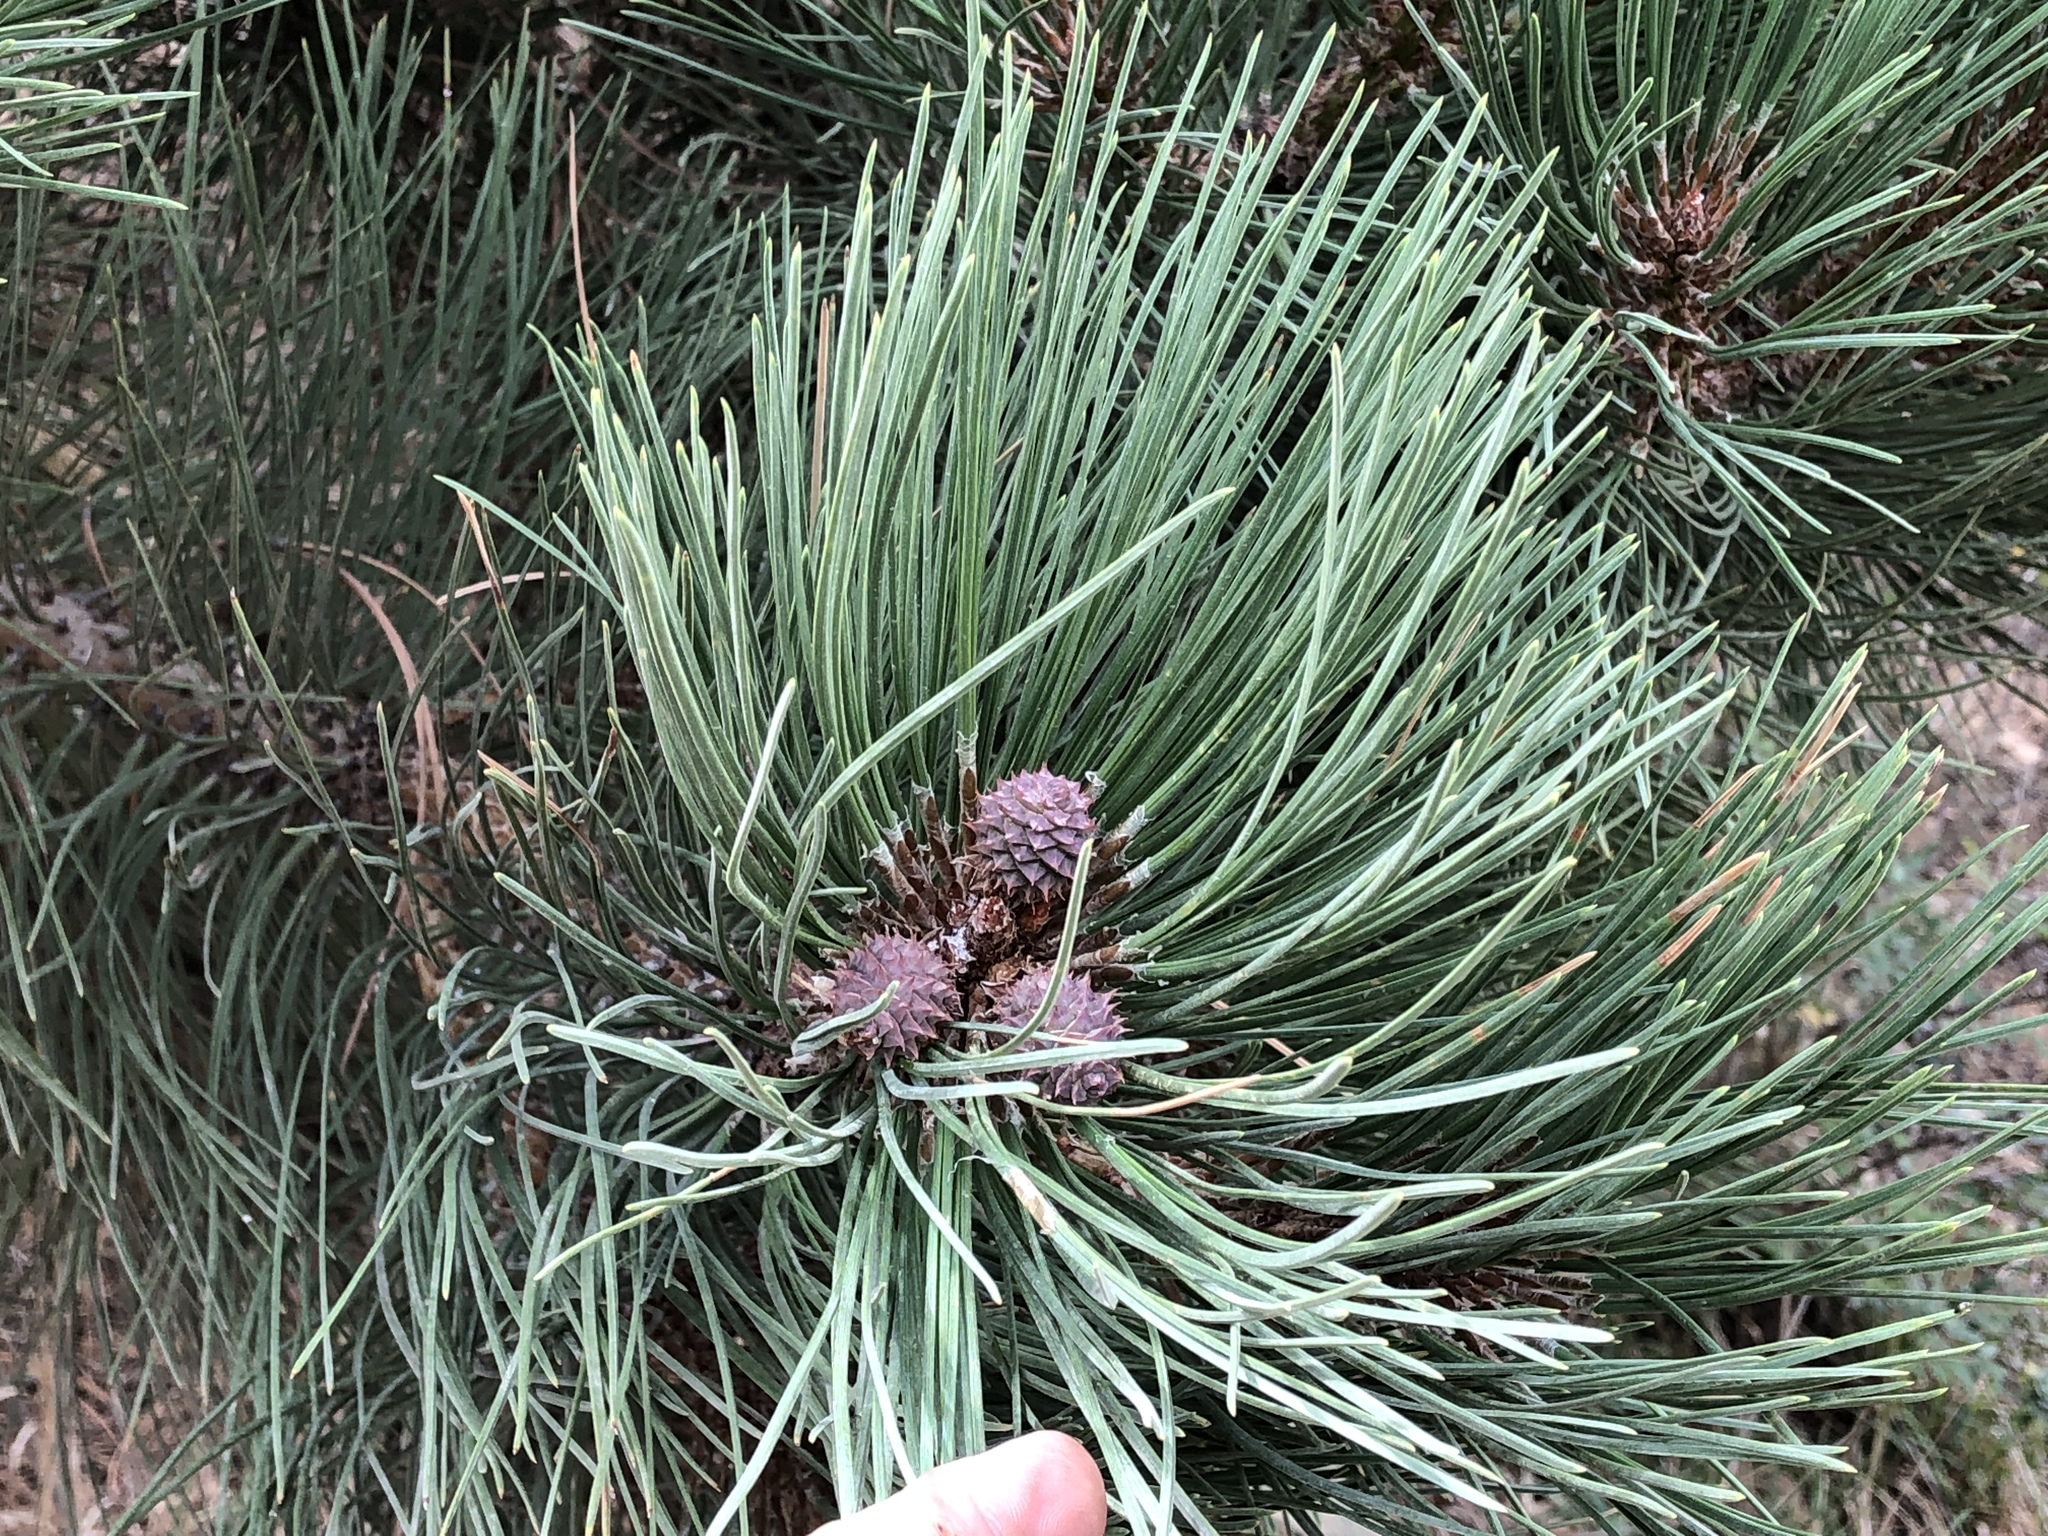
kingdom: Plantae
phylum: Tracheophyta
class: Pinopsida
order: Pinales
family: Pinaceae
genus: Pinus
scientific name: Pinus ponderosa
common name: Western yellow-pine
